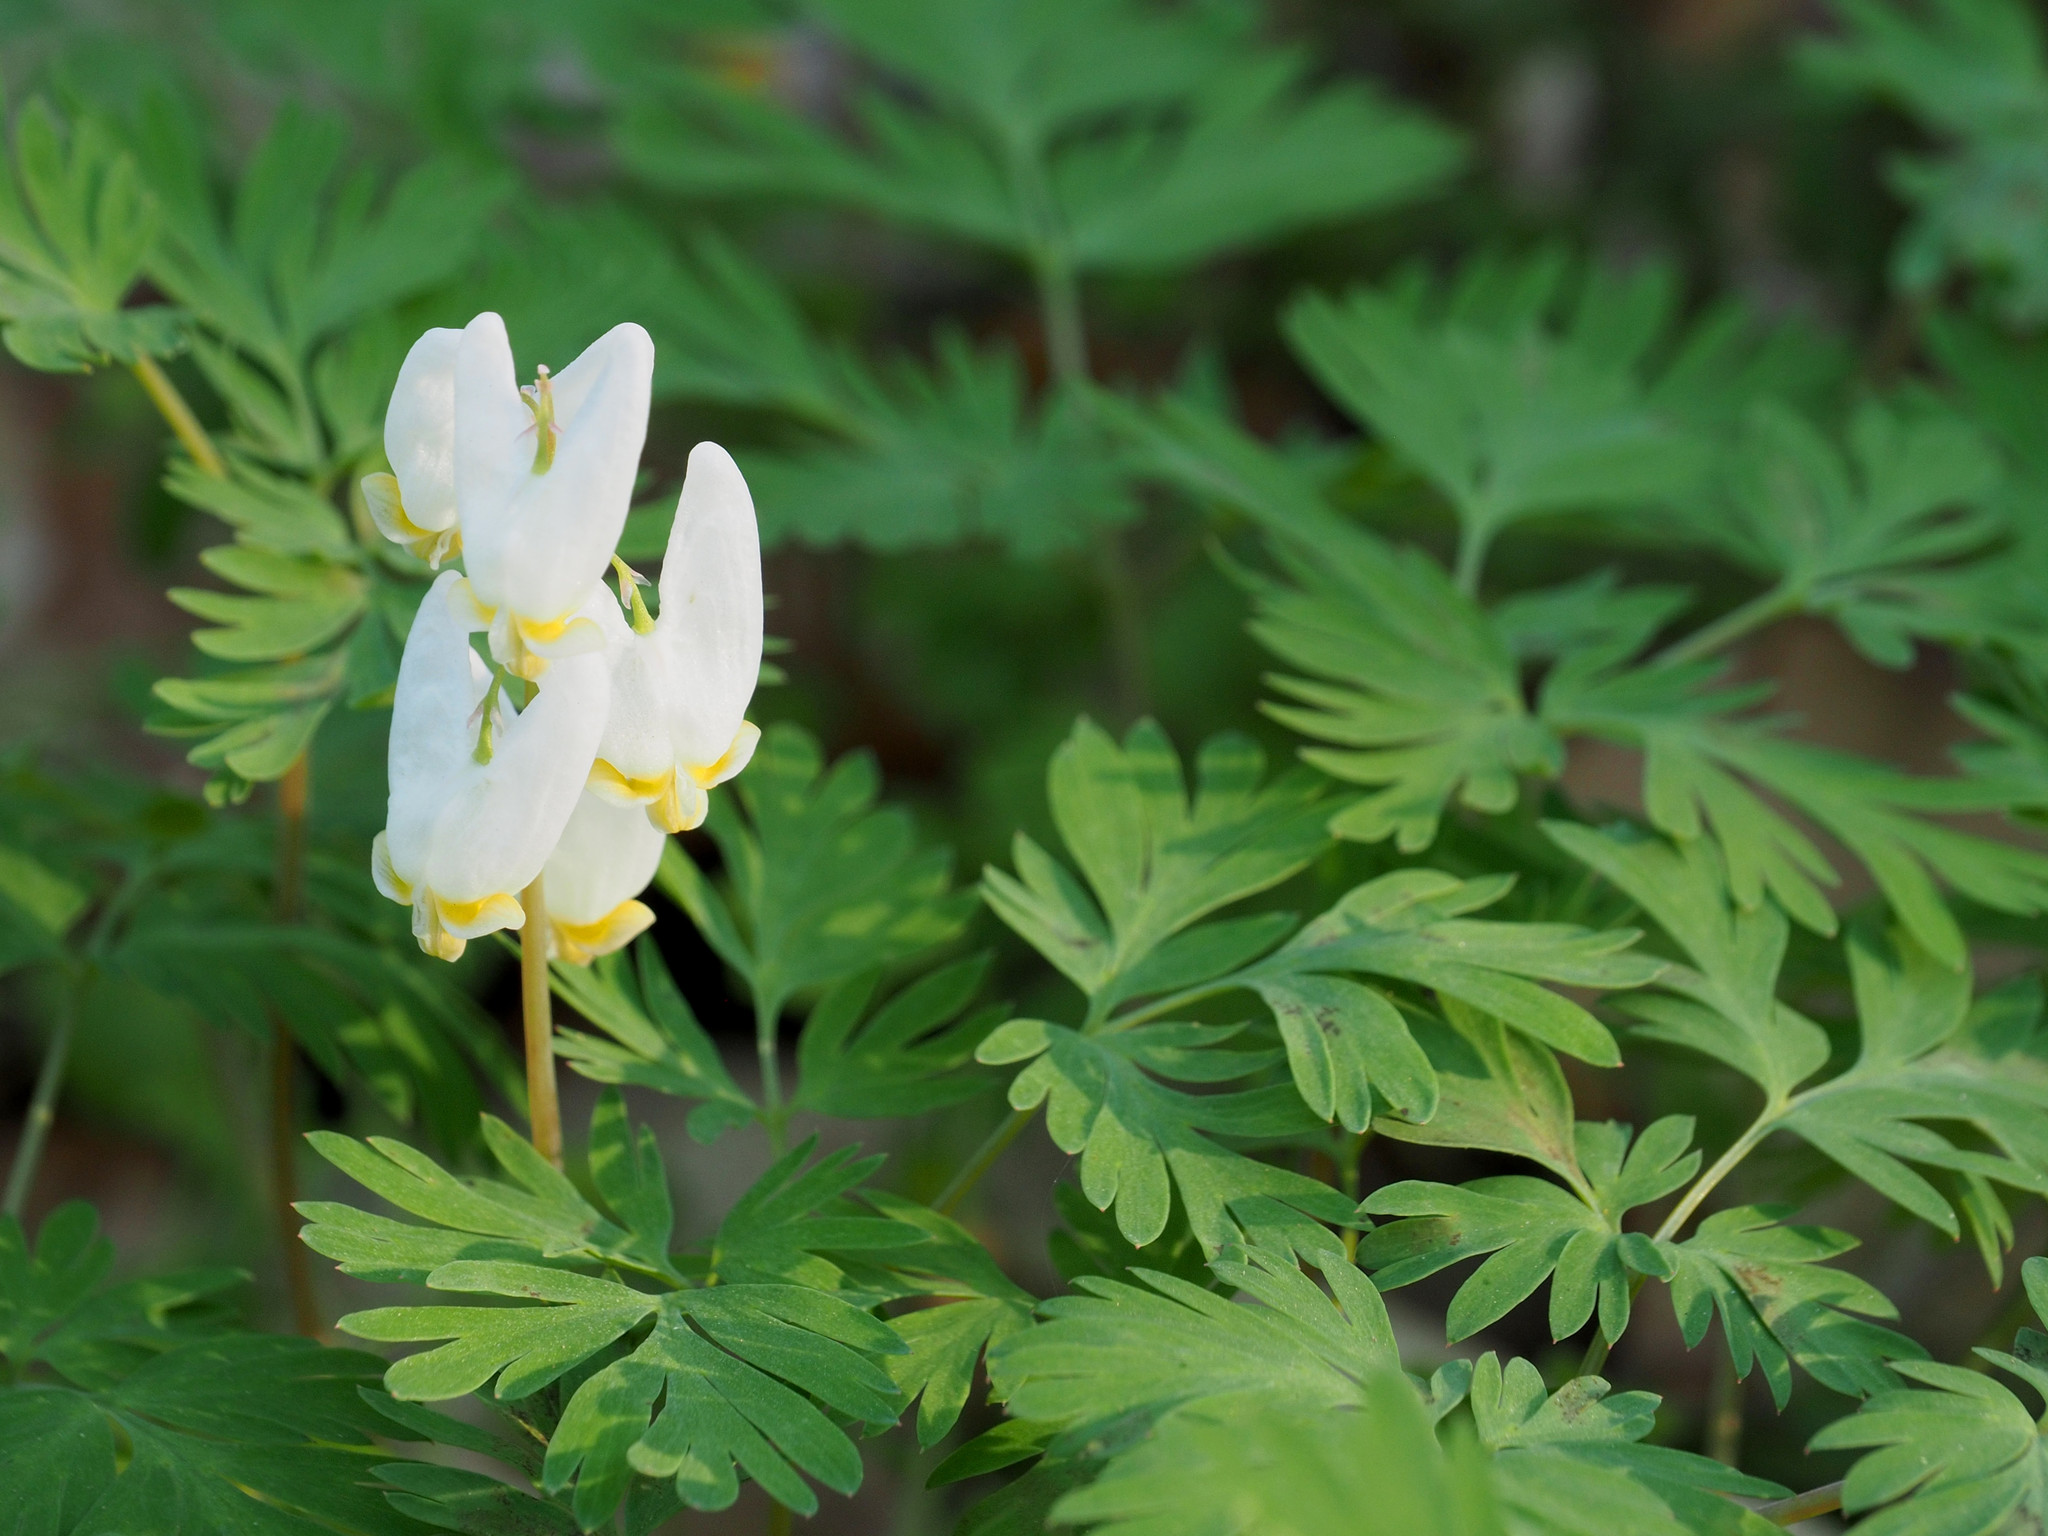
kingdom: Plantae
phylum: Tracheophyta
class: Magnoliopsida
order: Ranunculales
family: Papaveraceae
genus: Dicentra
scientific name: Dicentra cucullaria
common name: Dutchman's breeches
